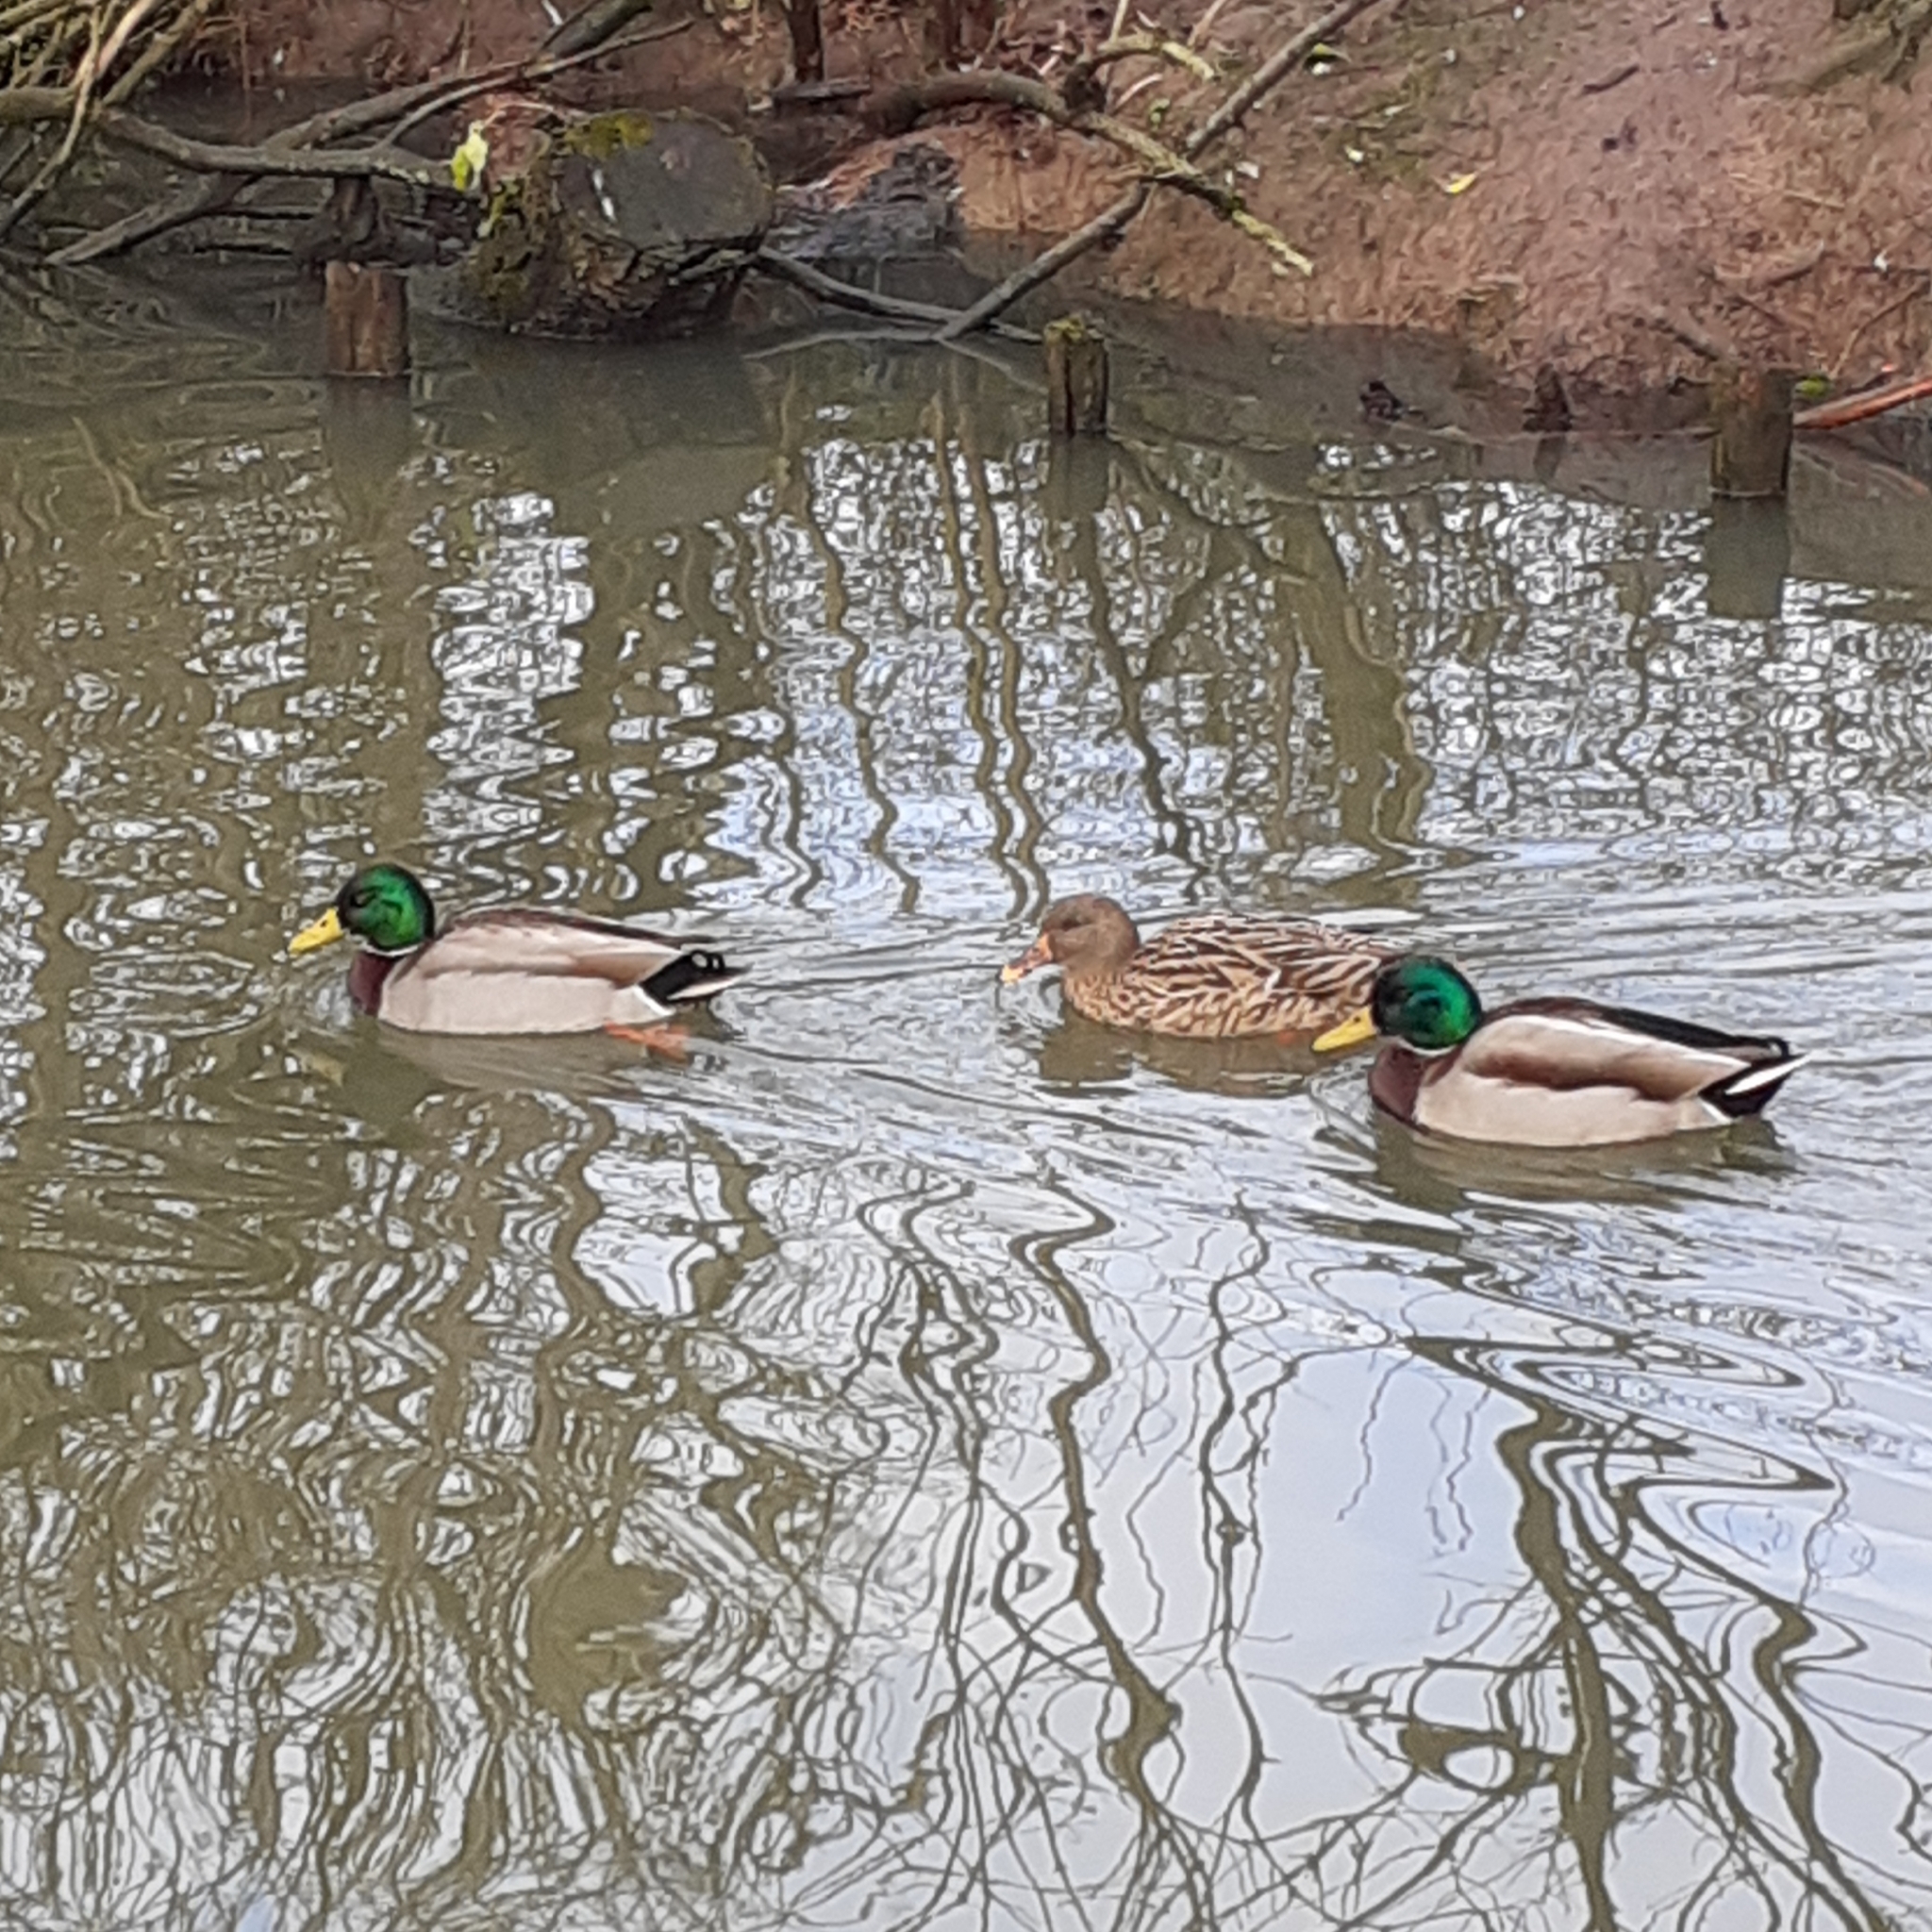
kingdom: Animalia
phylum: Chordata
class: Aves
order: Anseriformes
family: Anatidae
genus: Anas
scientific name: Anas platyrhynchos
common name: Mallard
